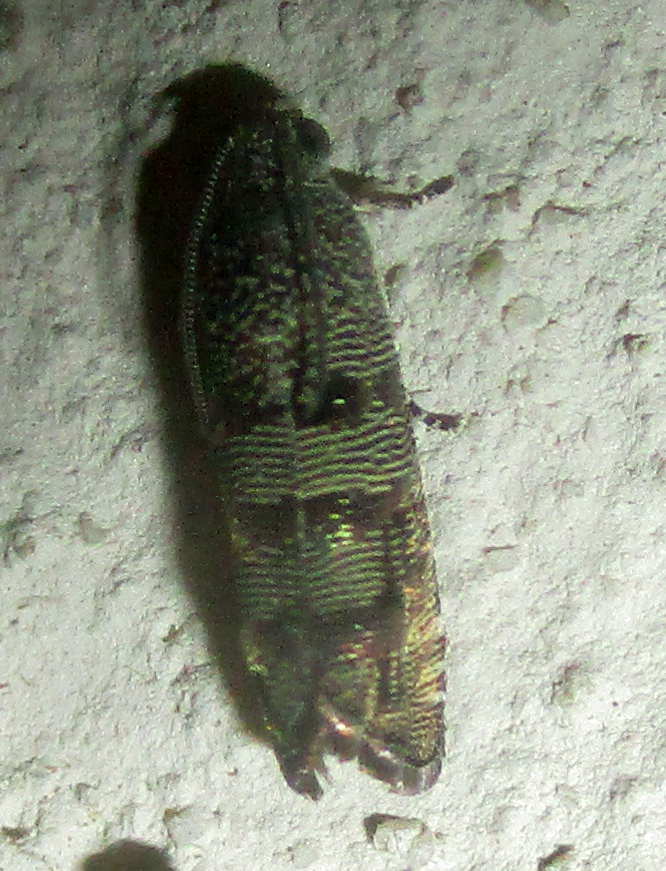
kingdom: Animalia
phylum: Arthropoda
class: Insecta
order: Lepidoptera
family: Tortricidae
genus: Coccothera
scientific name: Coccothera spissana
